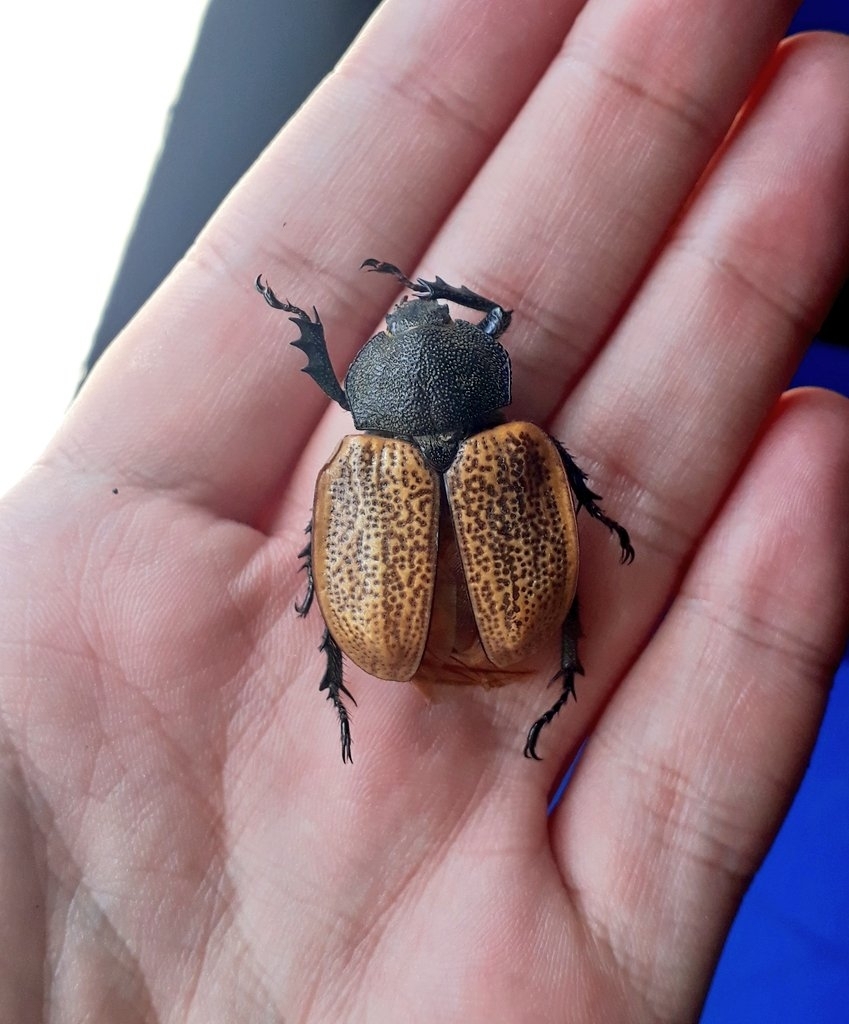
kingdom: Animalia
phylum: Arthropoda
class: Insecta
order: Coleoptera
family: Scarabaeidae
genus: Antodon
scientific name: Antodon goryi
